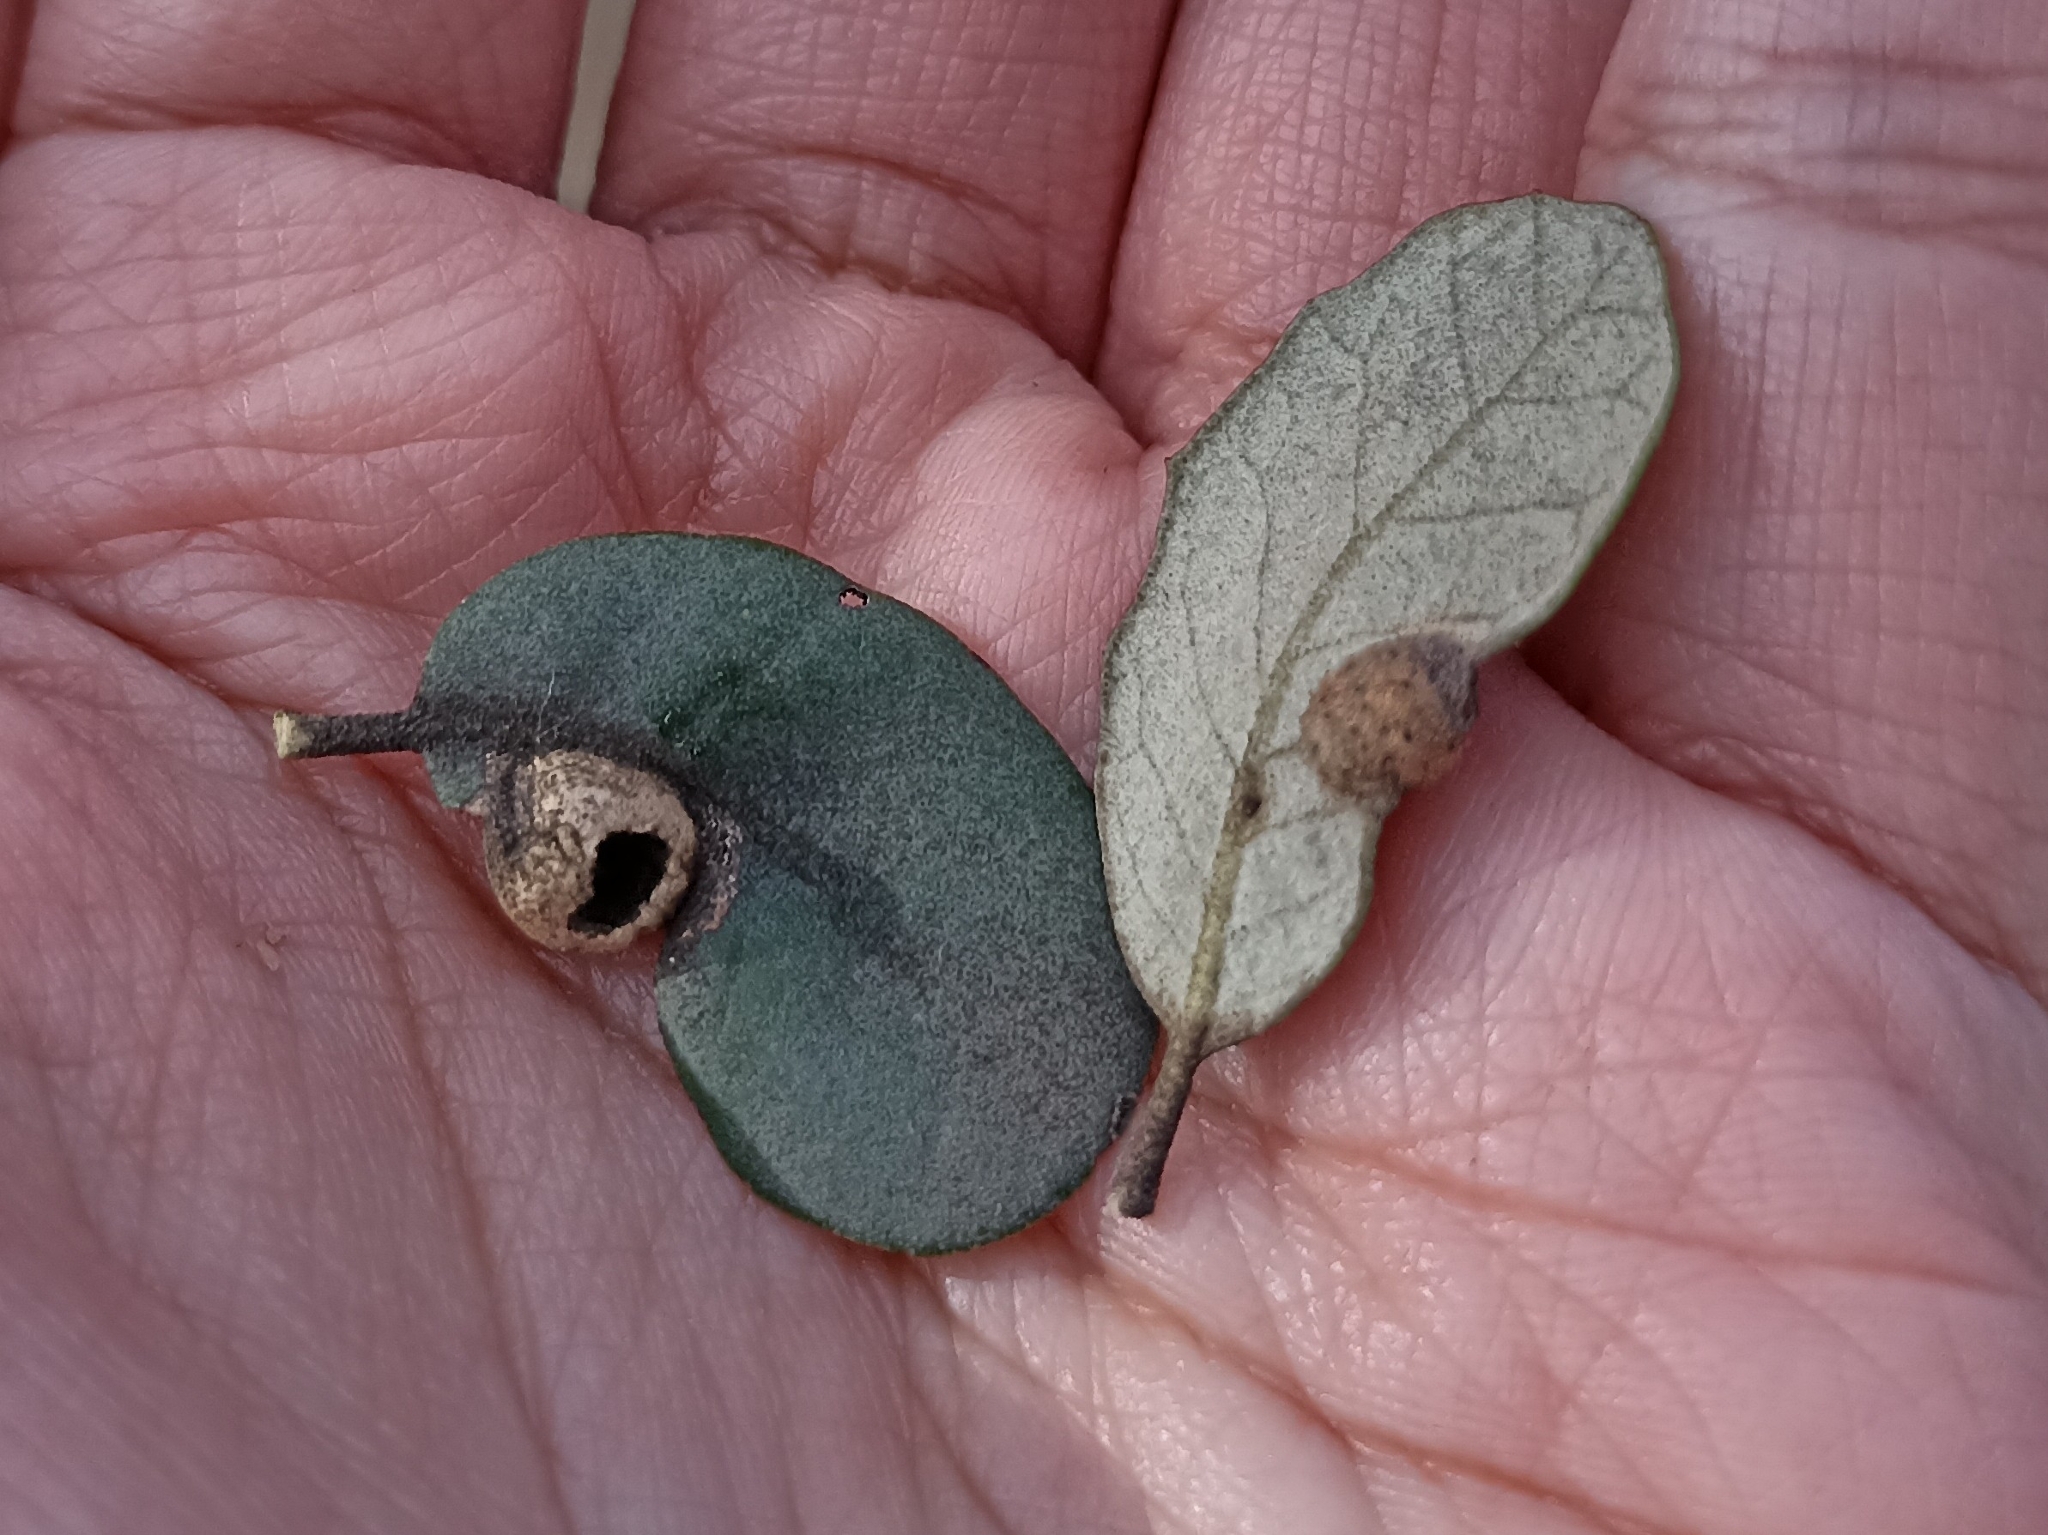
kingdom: Animalia
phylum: Arthropoda
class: Insecta
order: Hymenoptera
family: Cynipidae
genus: Plagiotrochus
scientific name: Plagiotrochus australis
